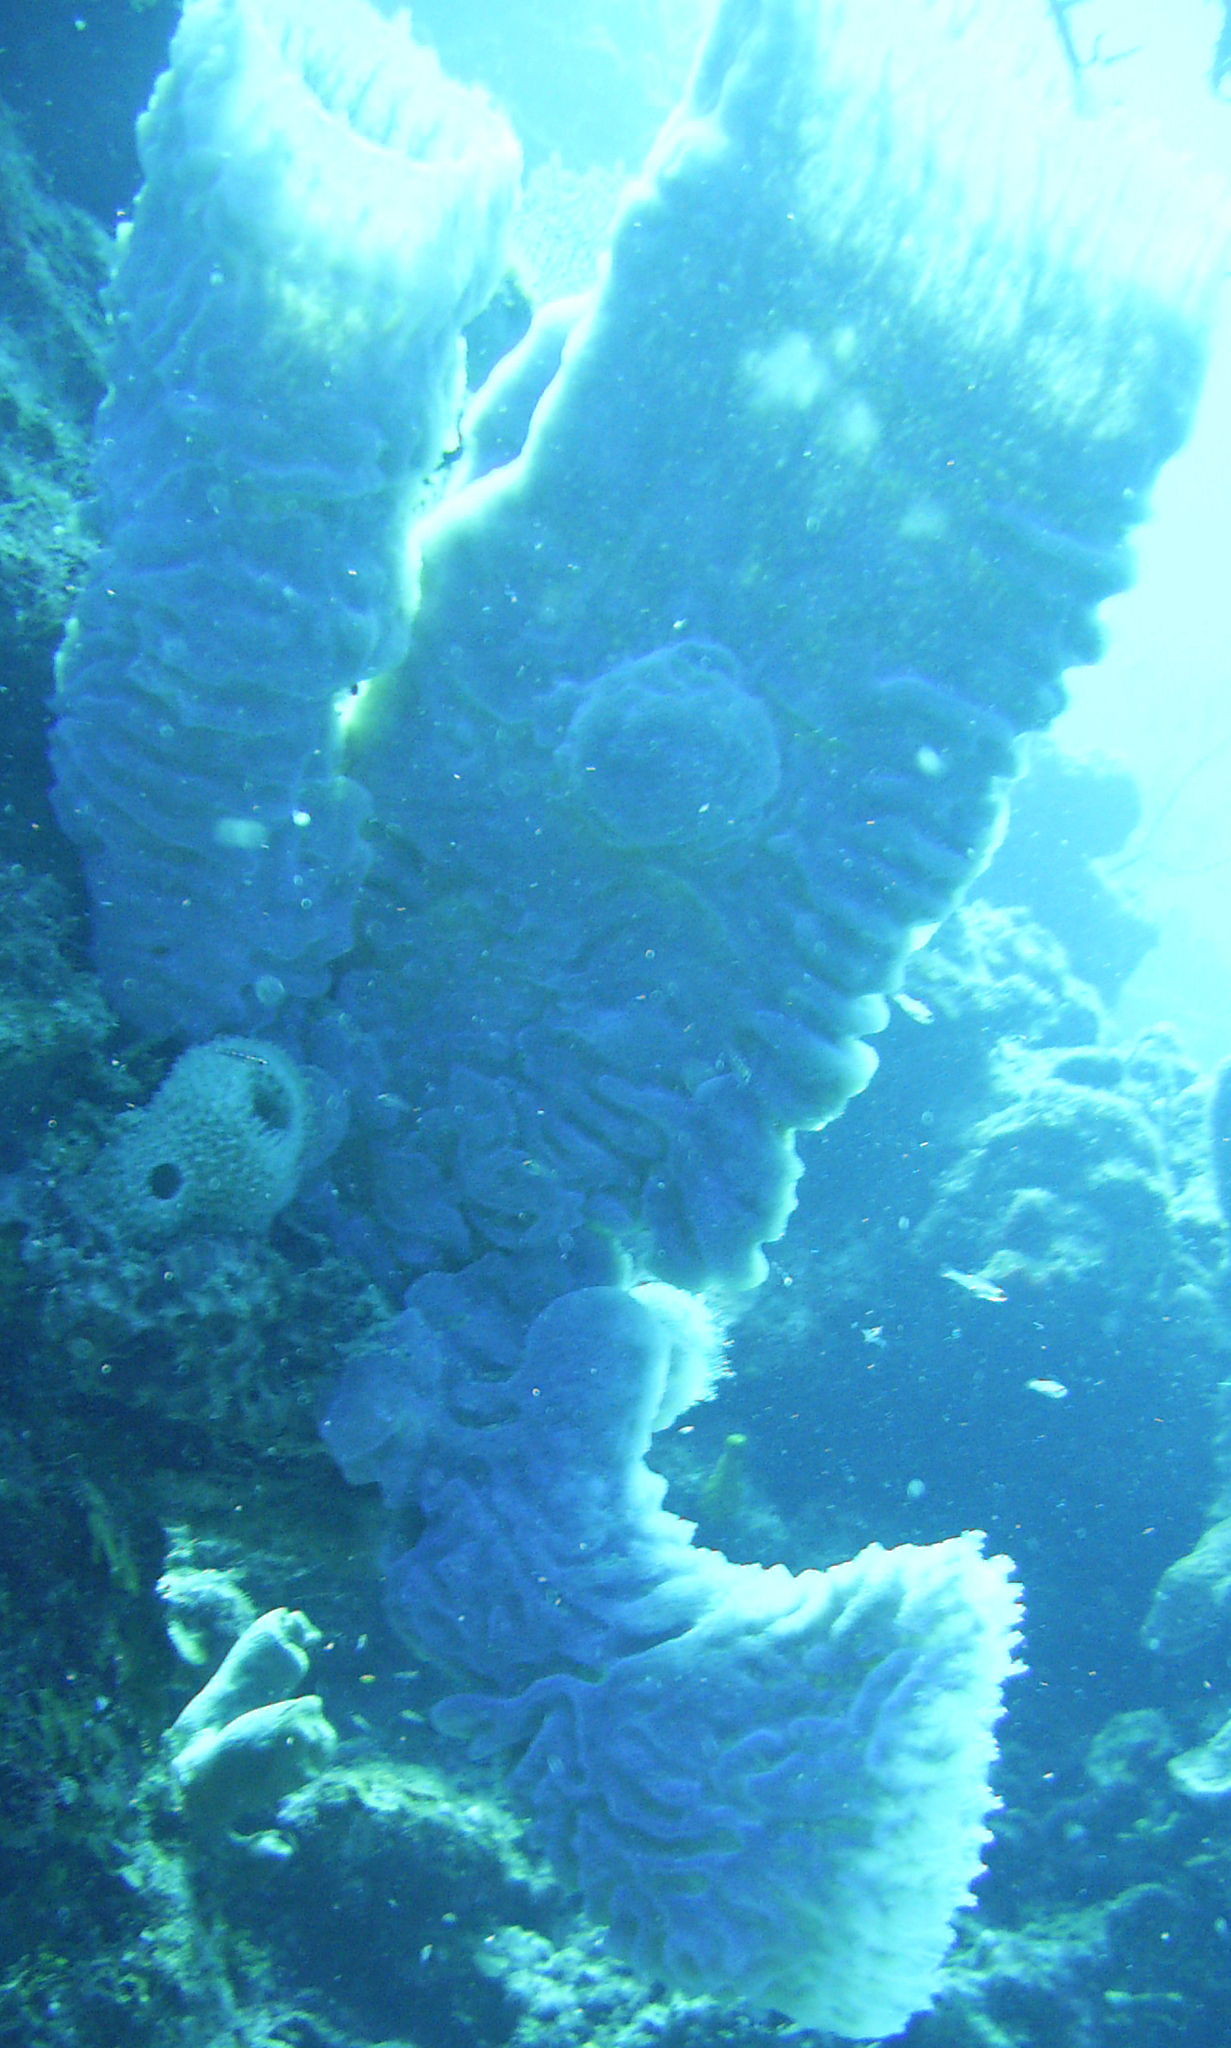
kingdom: Animalia
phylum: Porifera
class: Demospongiae
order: Haplosclerida
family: Callyspongiidae
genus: Callyspongia
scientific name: Callyspongia plicifera
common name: Azure vase sponge
